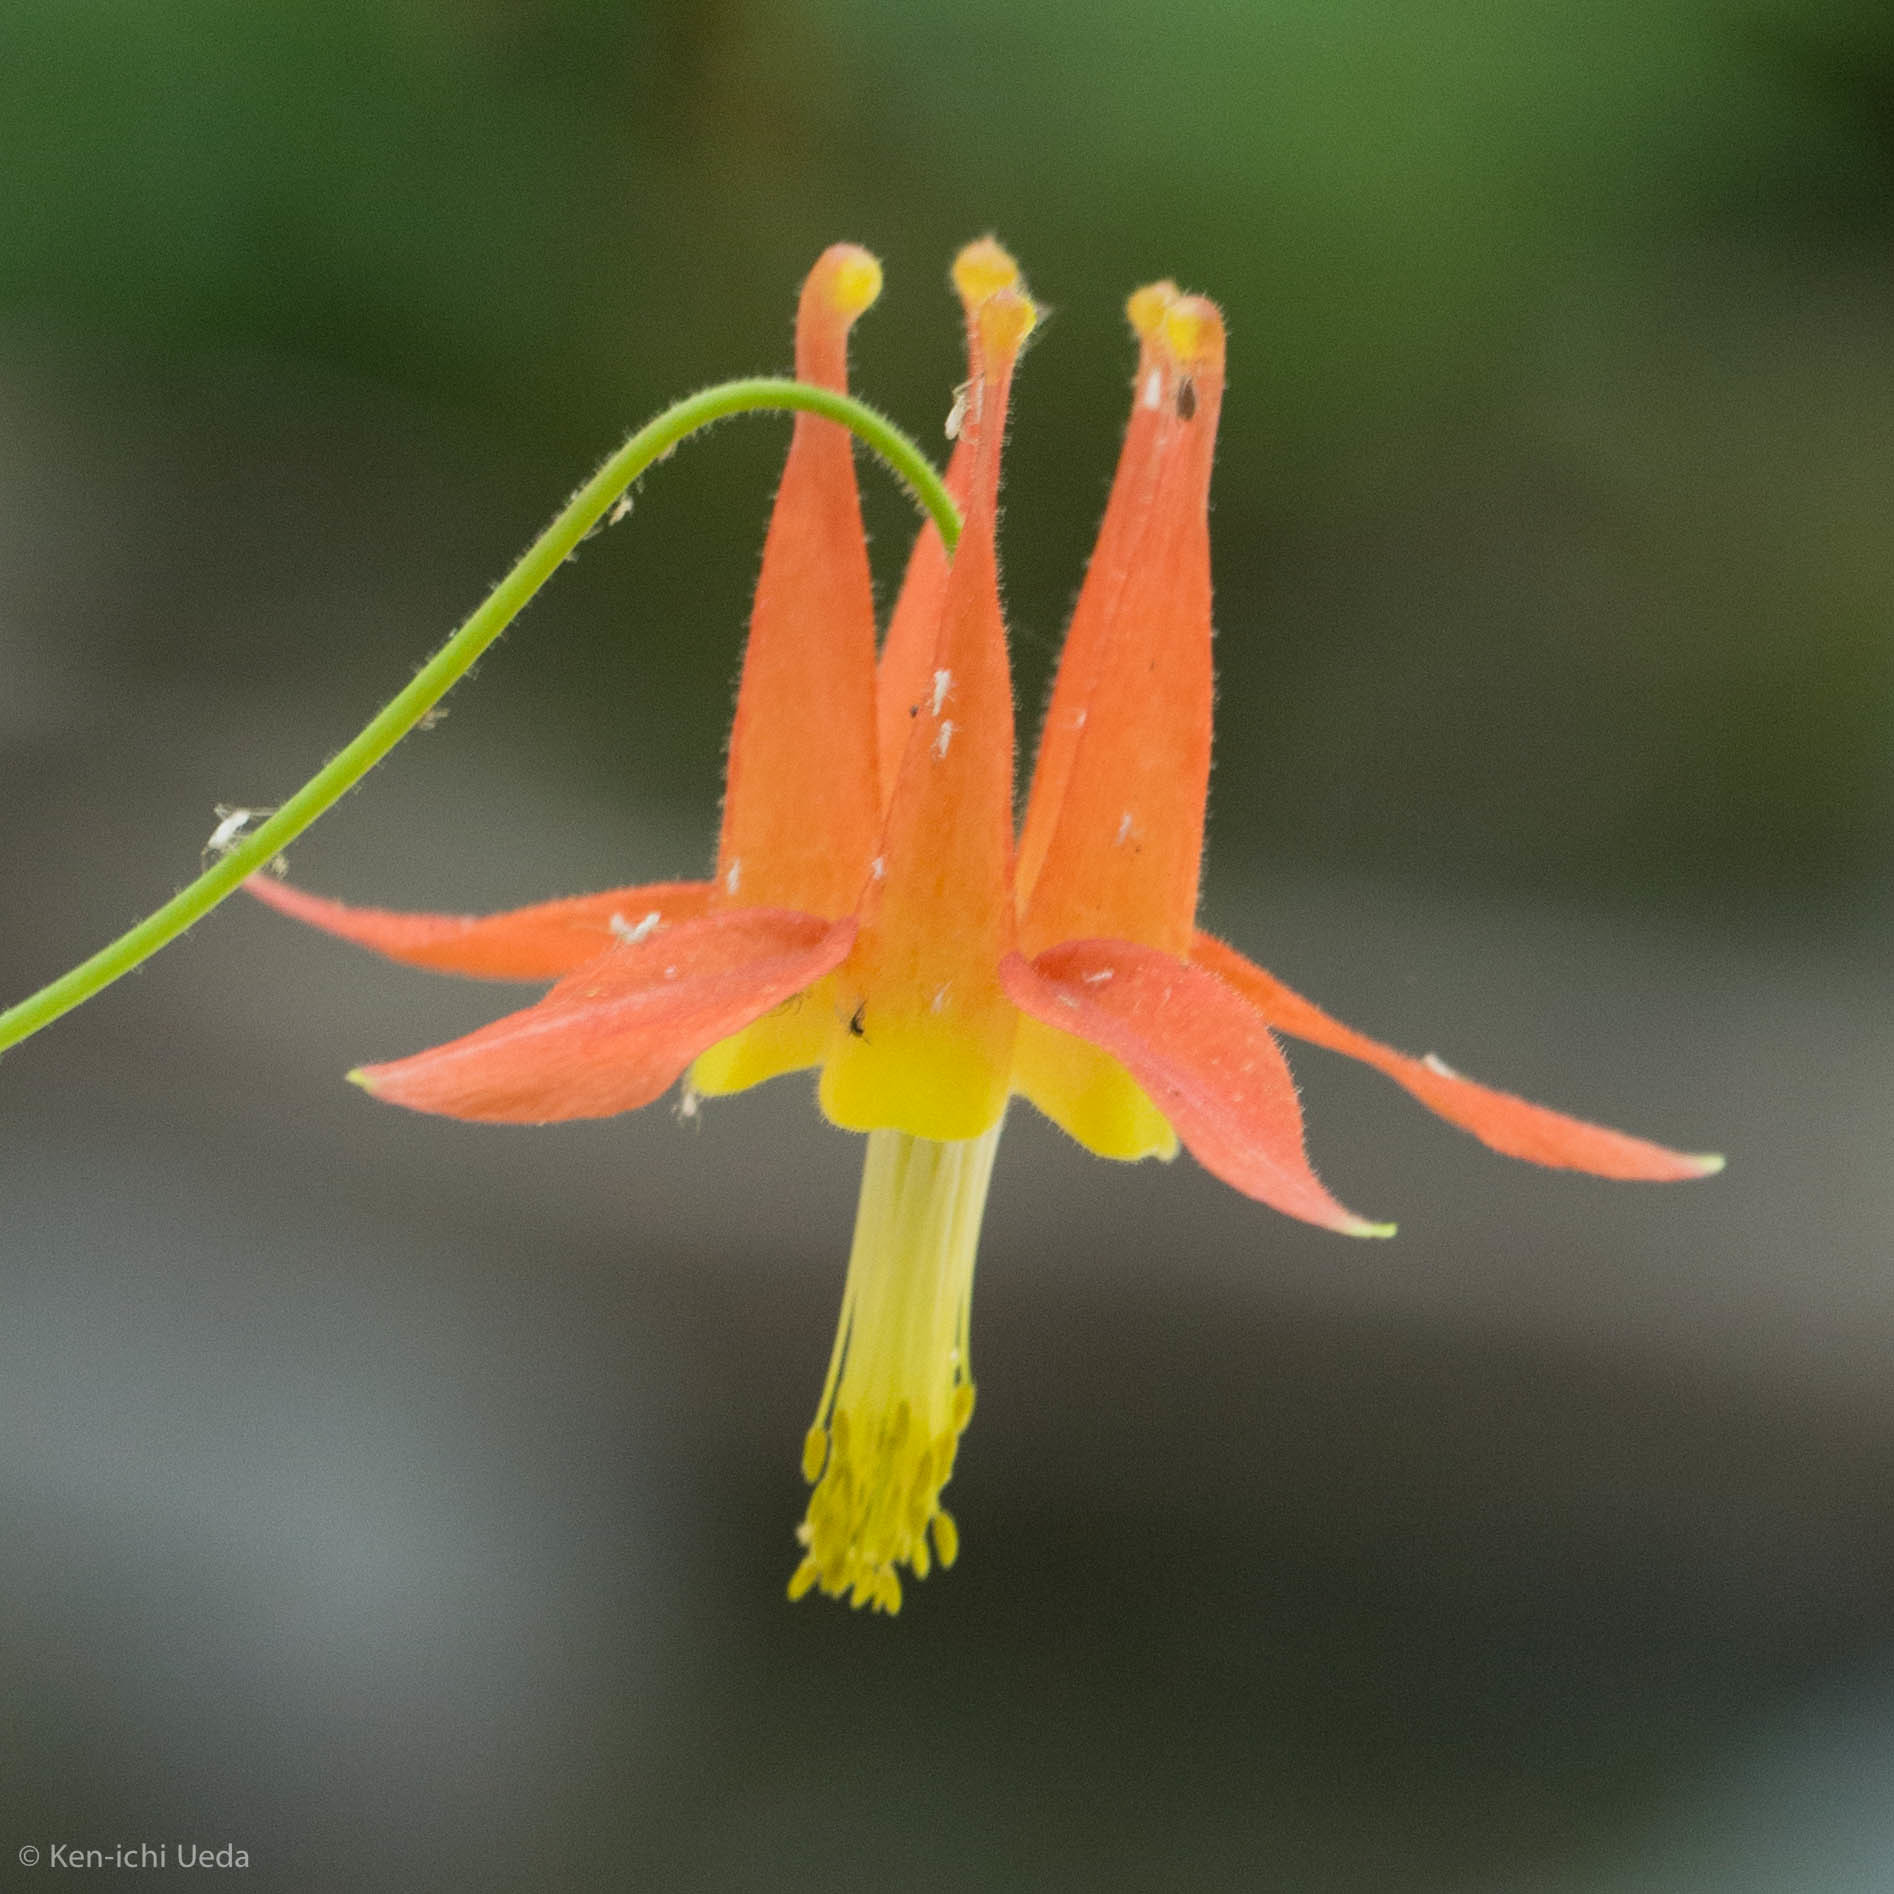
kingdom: Plantae
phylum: Tracheophyta
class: Magnoliopsida
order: Ranunculales
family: Ranunculaceae
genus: Aquilegia
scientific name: Aquilegia formosa
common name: Sitka columbine
